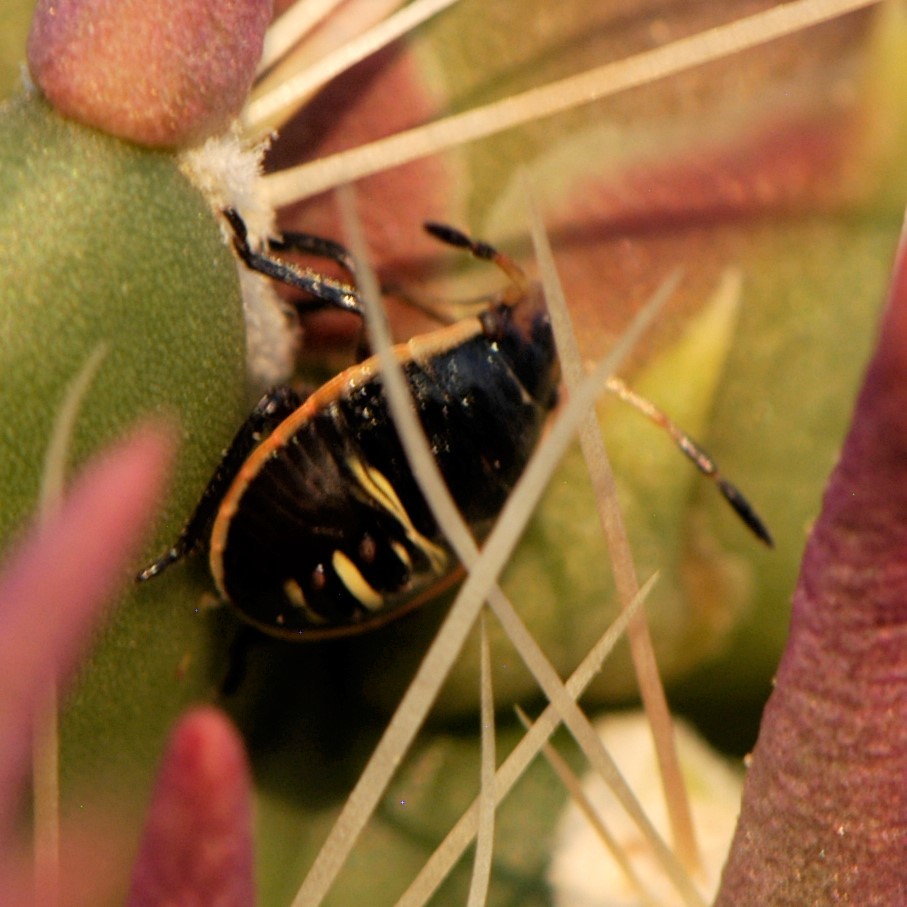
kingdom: Animalia
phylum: Arthropoda
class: Insecta
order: Hemiptera
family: Pentatomidae
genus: Chlorochroa
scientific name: Chlorochroa opuntiae
